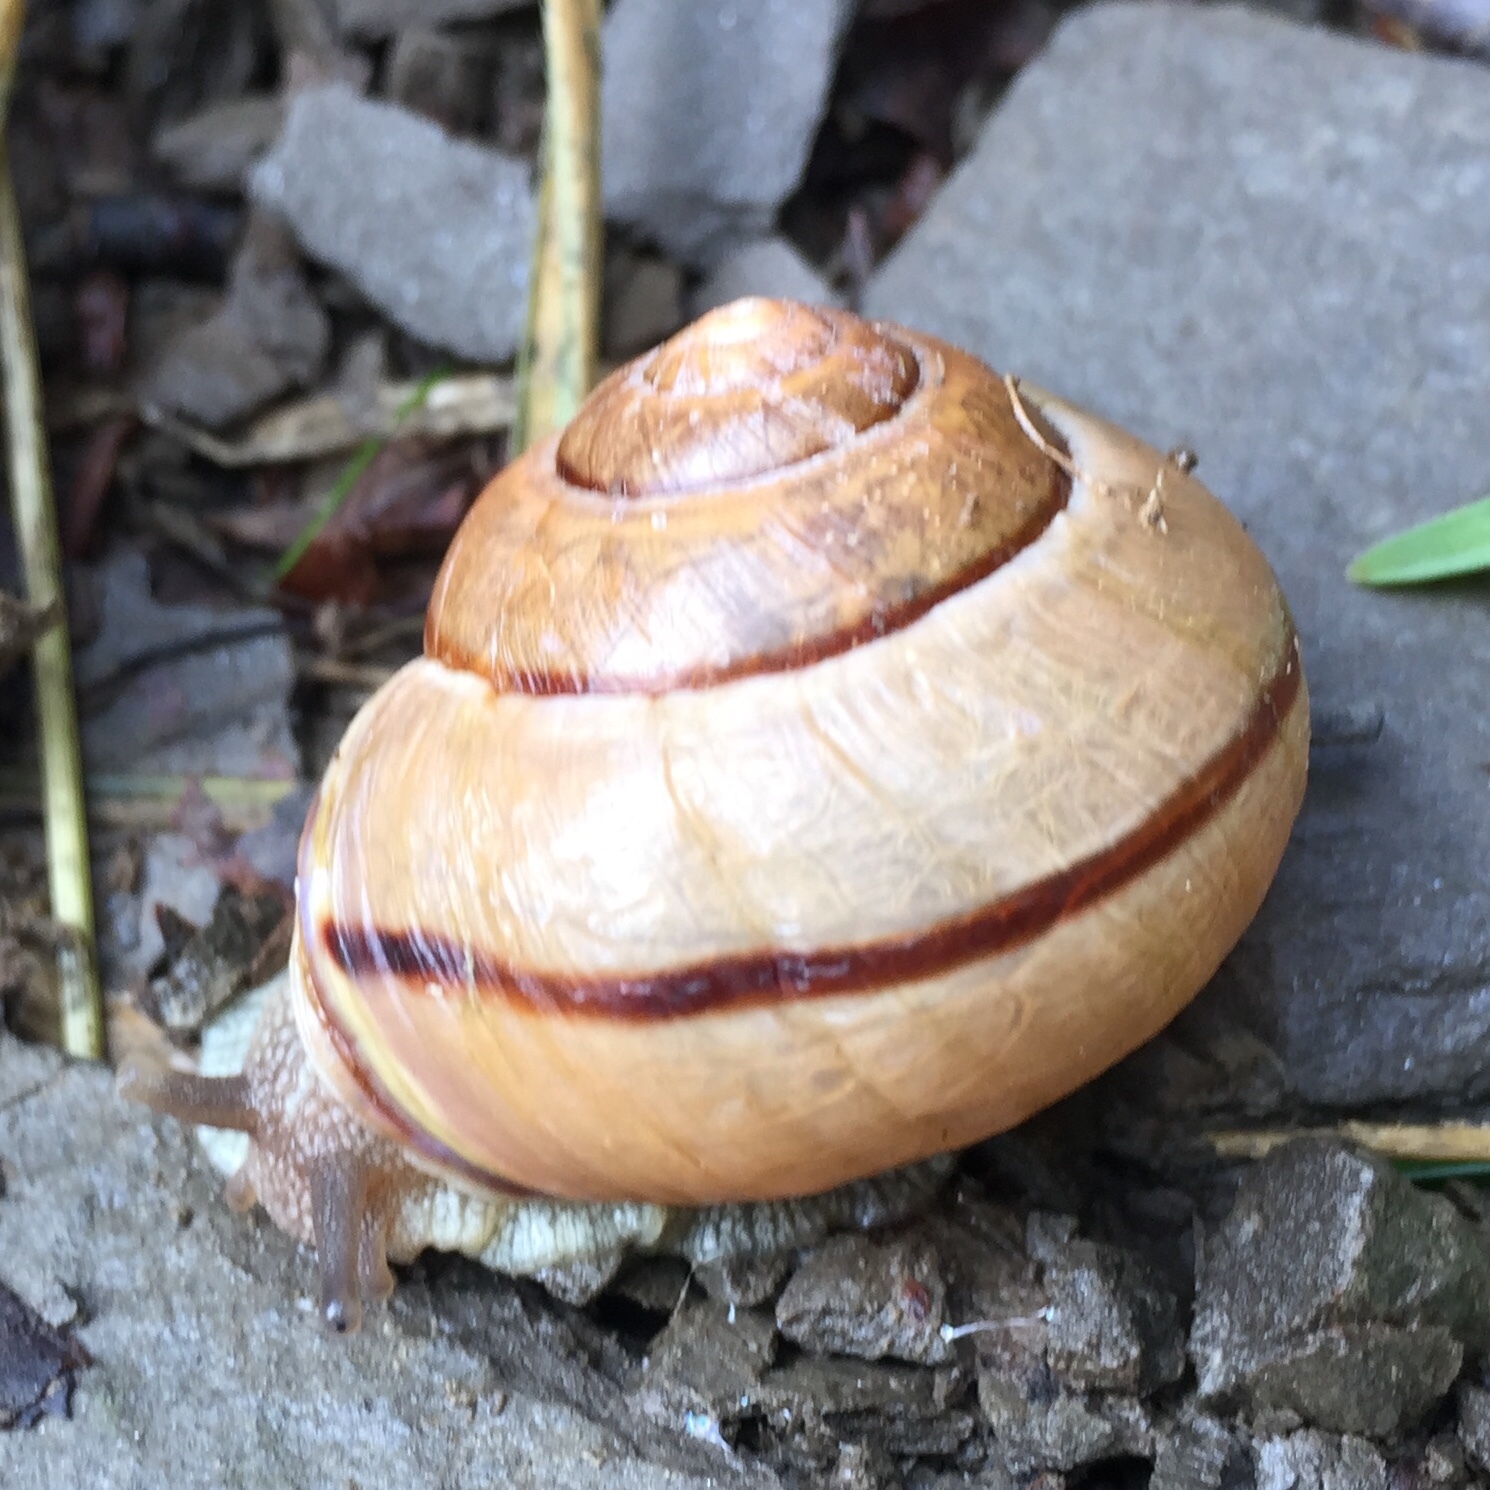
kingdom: Animalia
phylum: Mollusca
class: Gastropoda
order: Stylommatophora
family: Helicidae
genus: Cepaea
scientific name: Cepaea nemoralis
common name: Grovesnail
